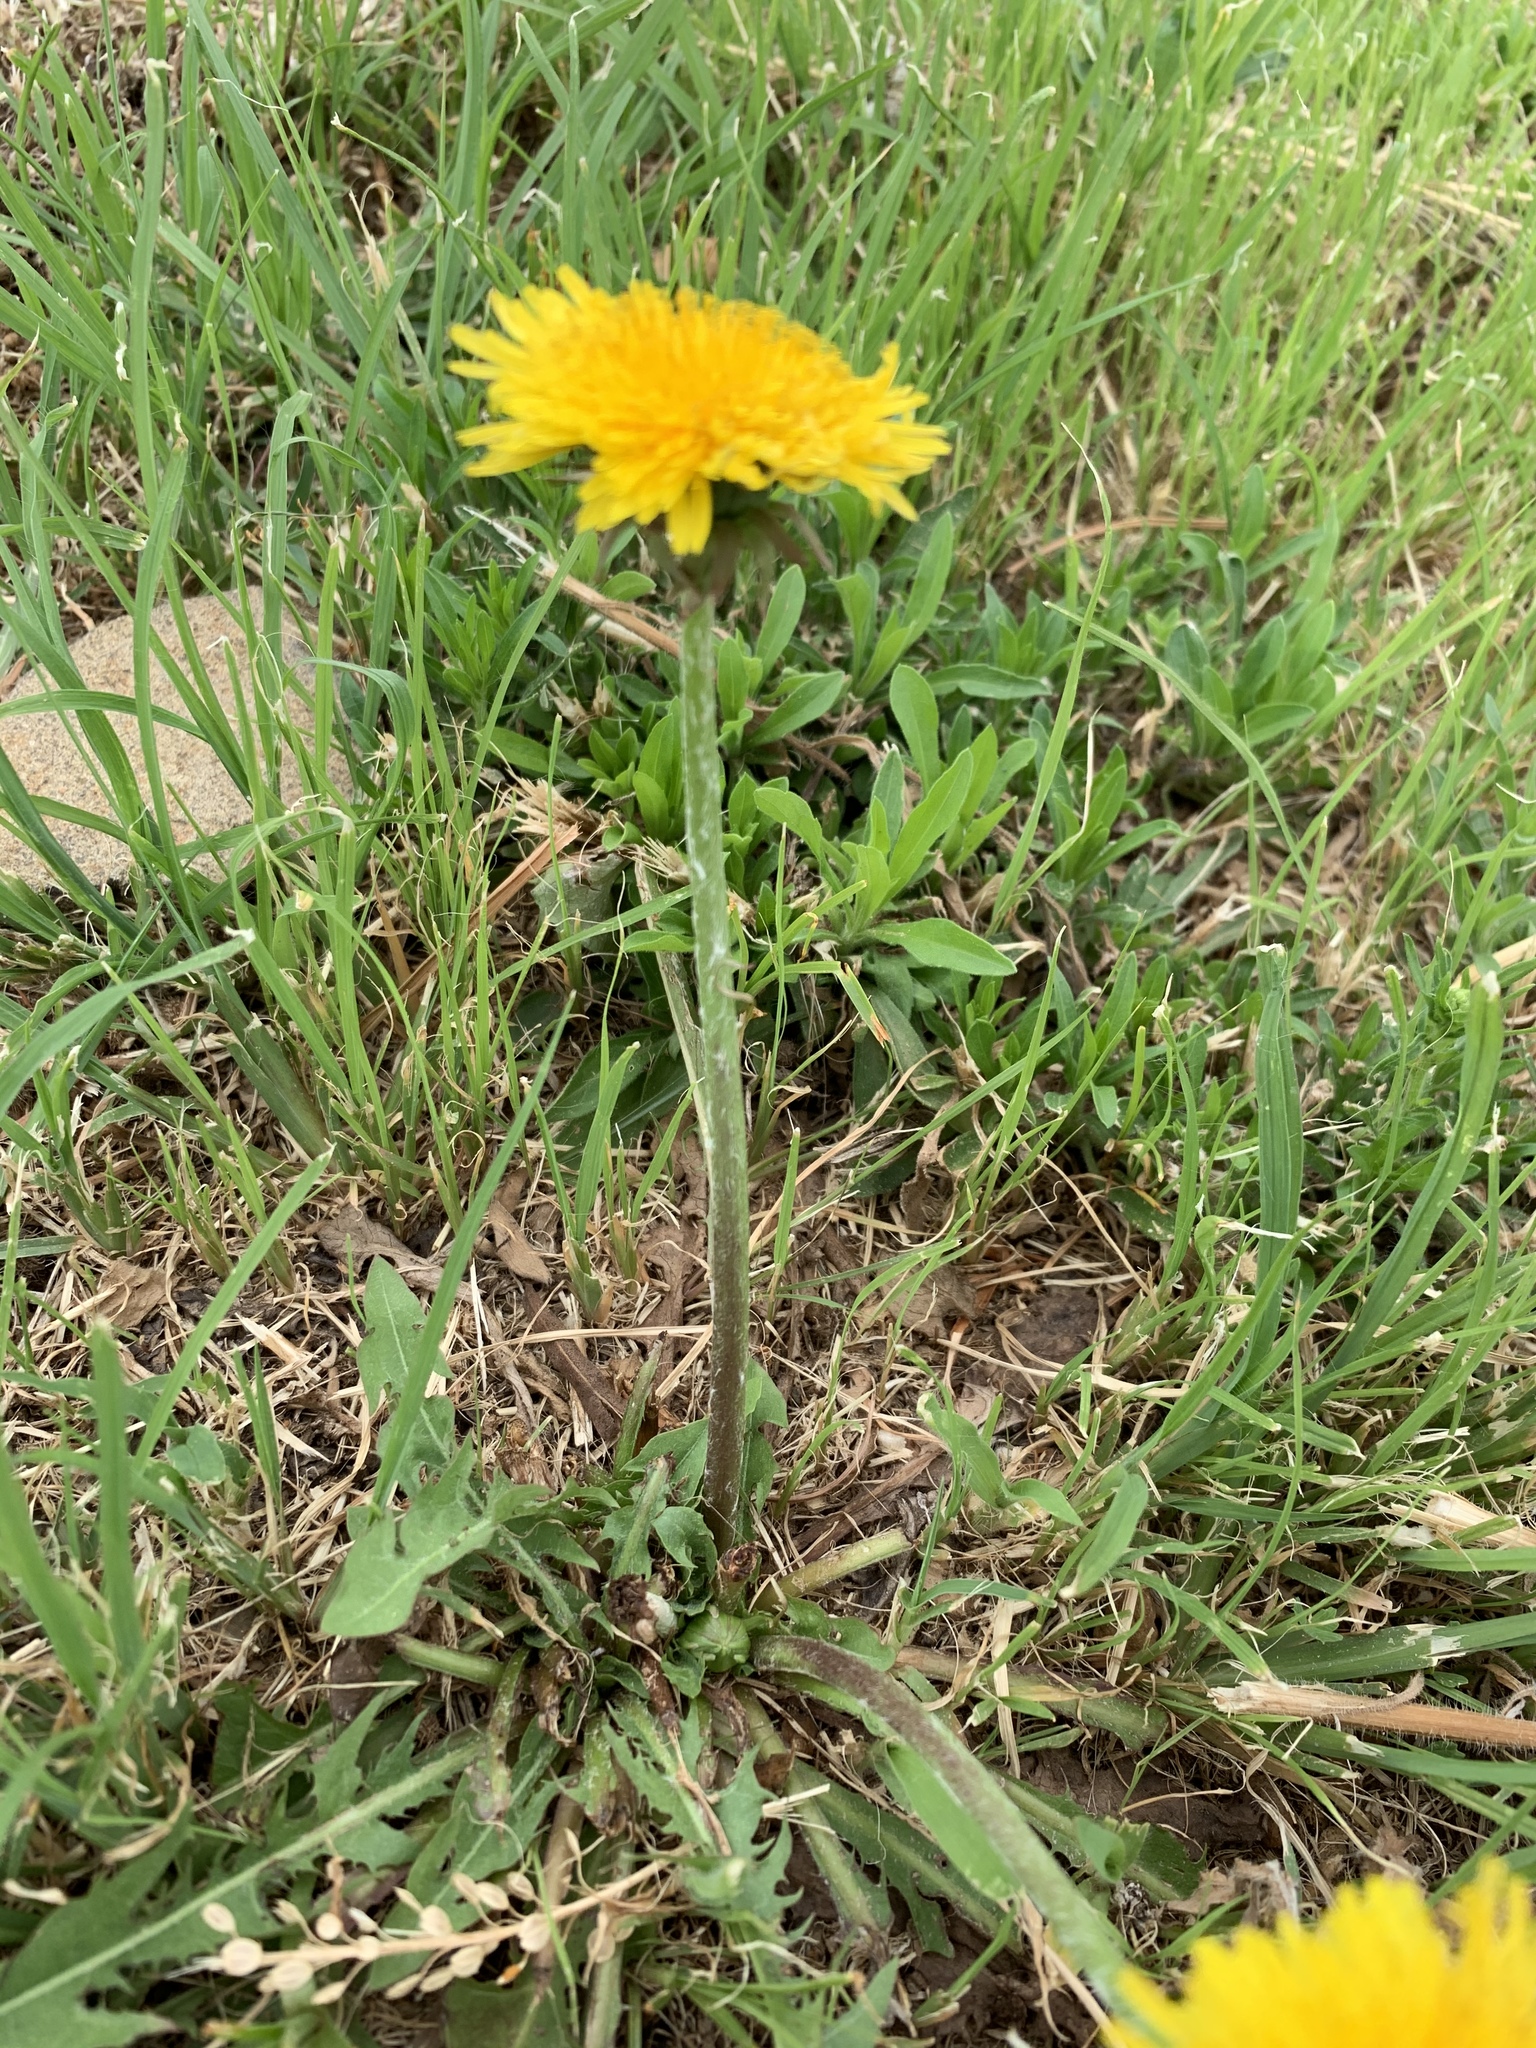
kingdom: Plantae
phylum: Tracheophyta
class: Magnoliopsida
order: Asterales
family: Asteraceae
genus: Taraxacum
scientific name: Taraxacum officinale
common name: Common dandelion
